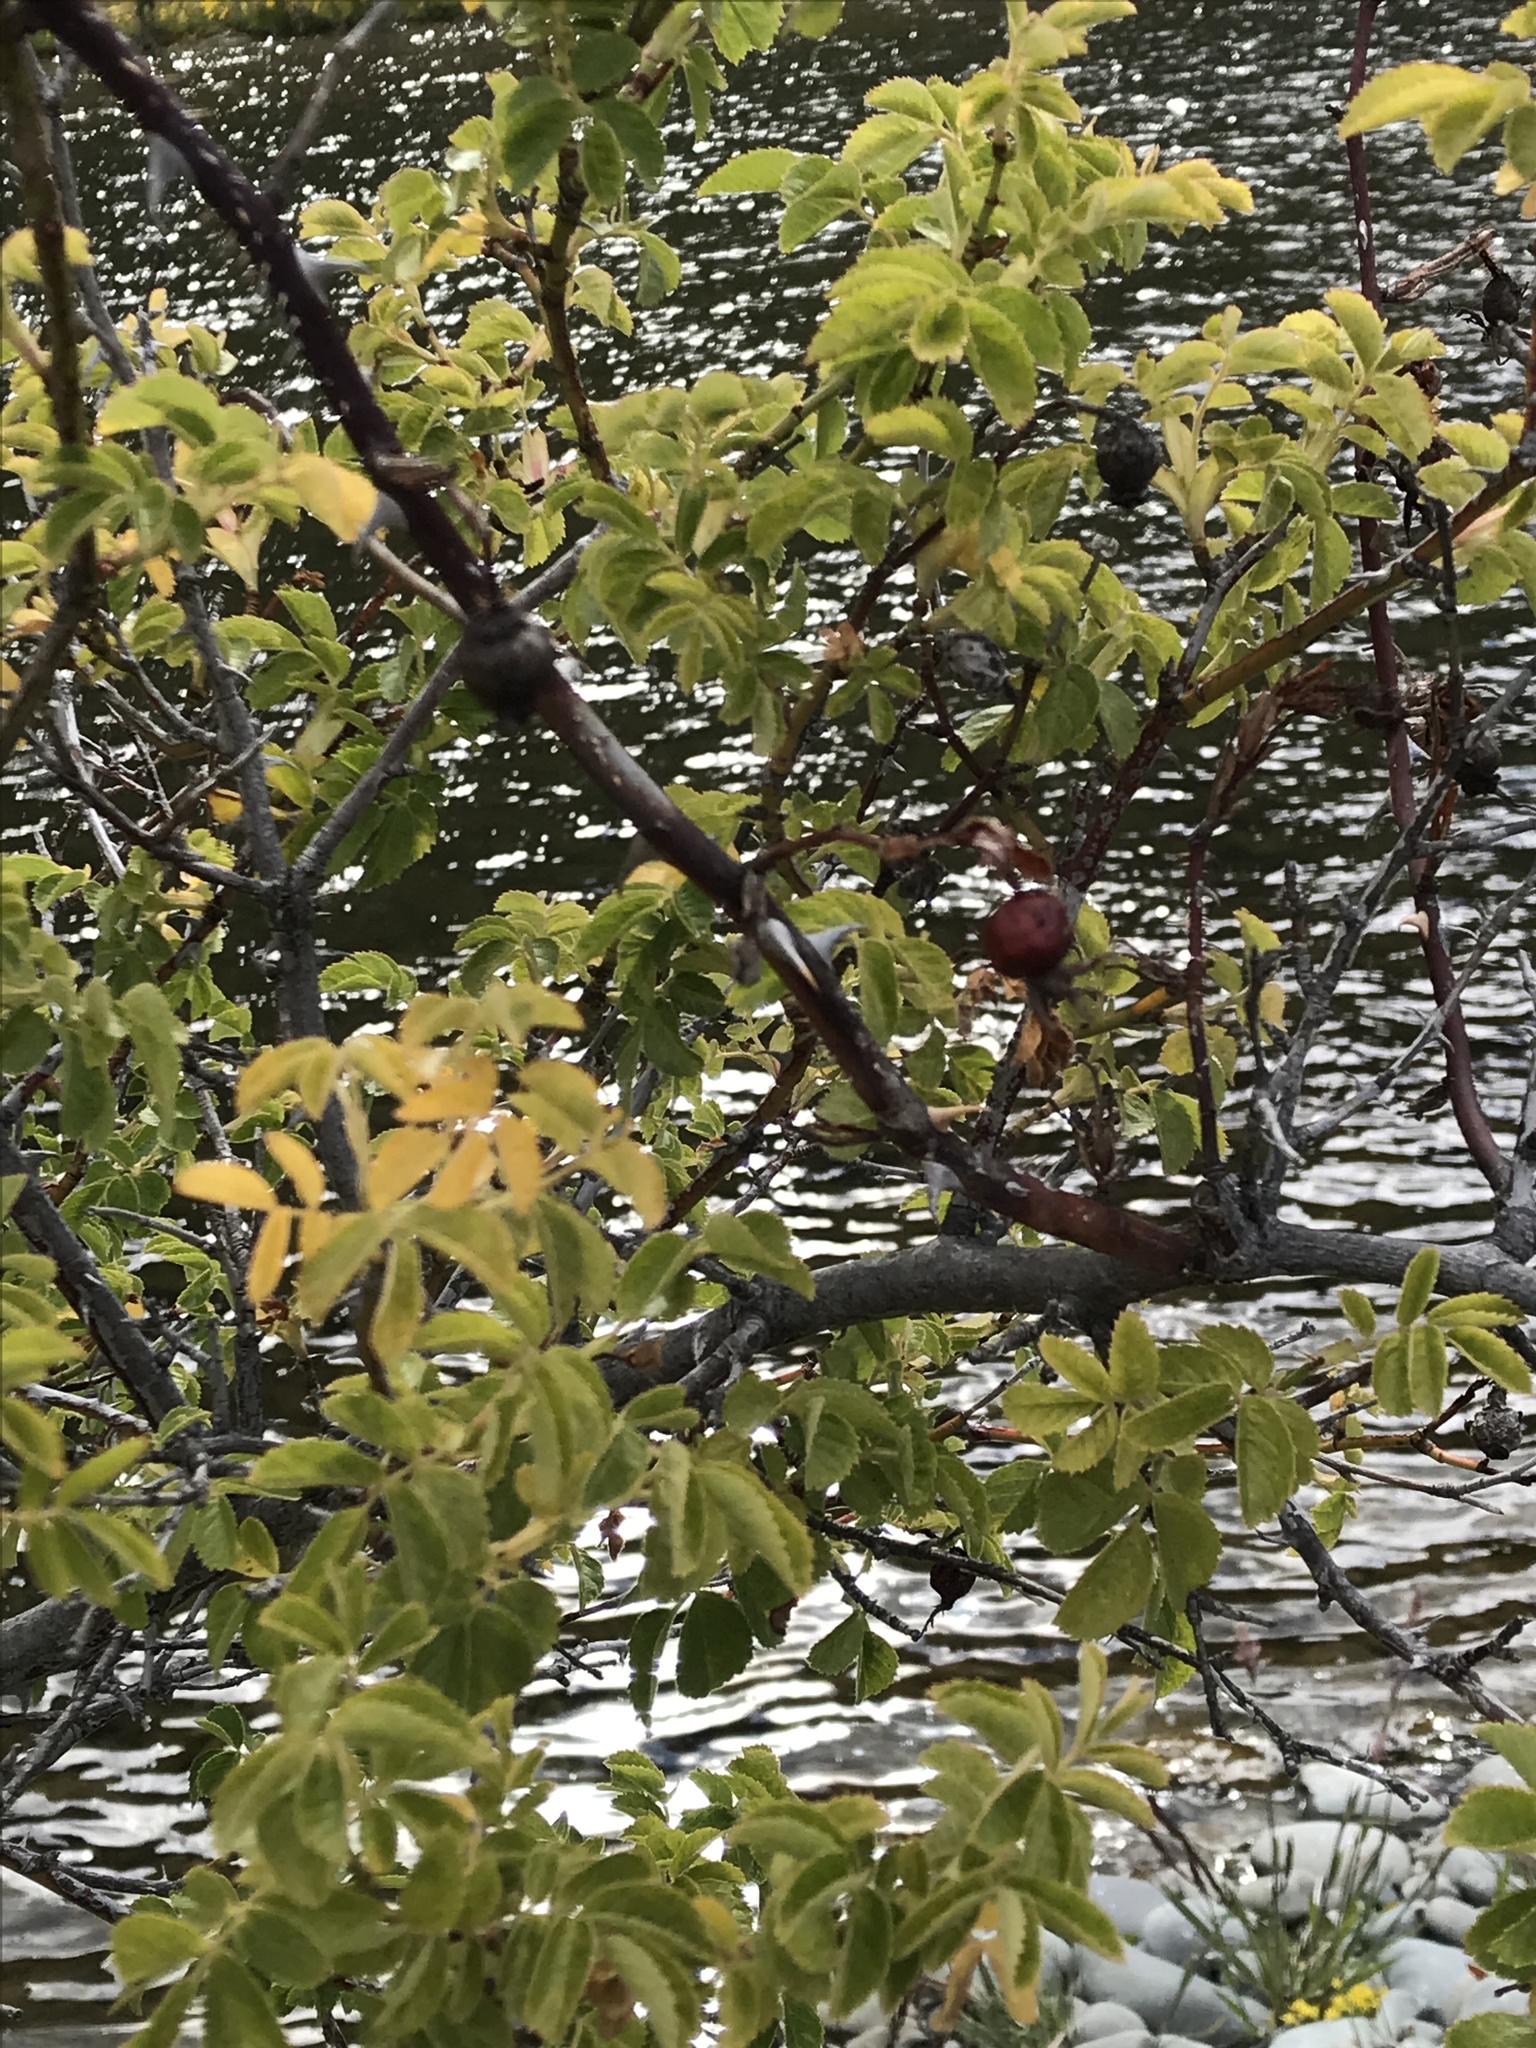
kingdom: Plantae
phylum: Tracheophyta
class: Magnoliopsida
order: Rosales
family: Rosaceae
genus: Rosa
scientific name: Rosa rubiginosa
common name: Sweet-briar
